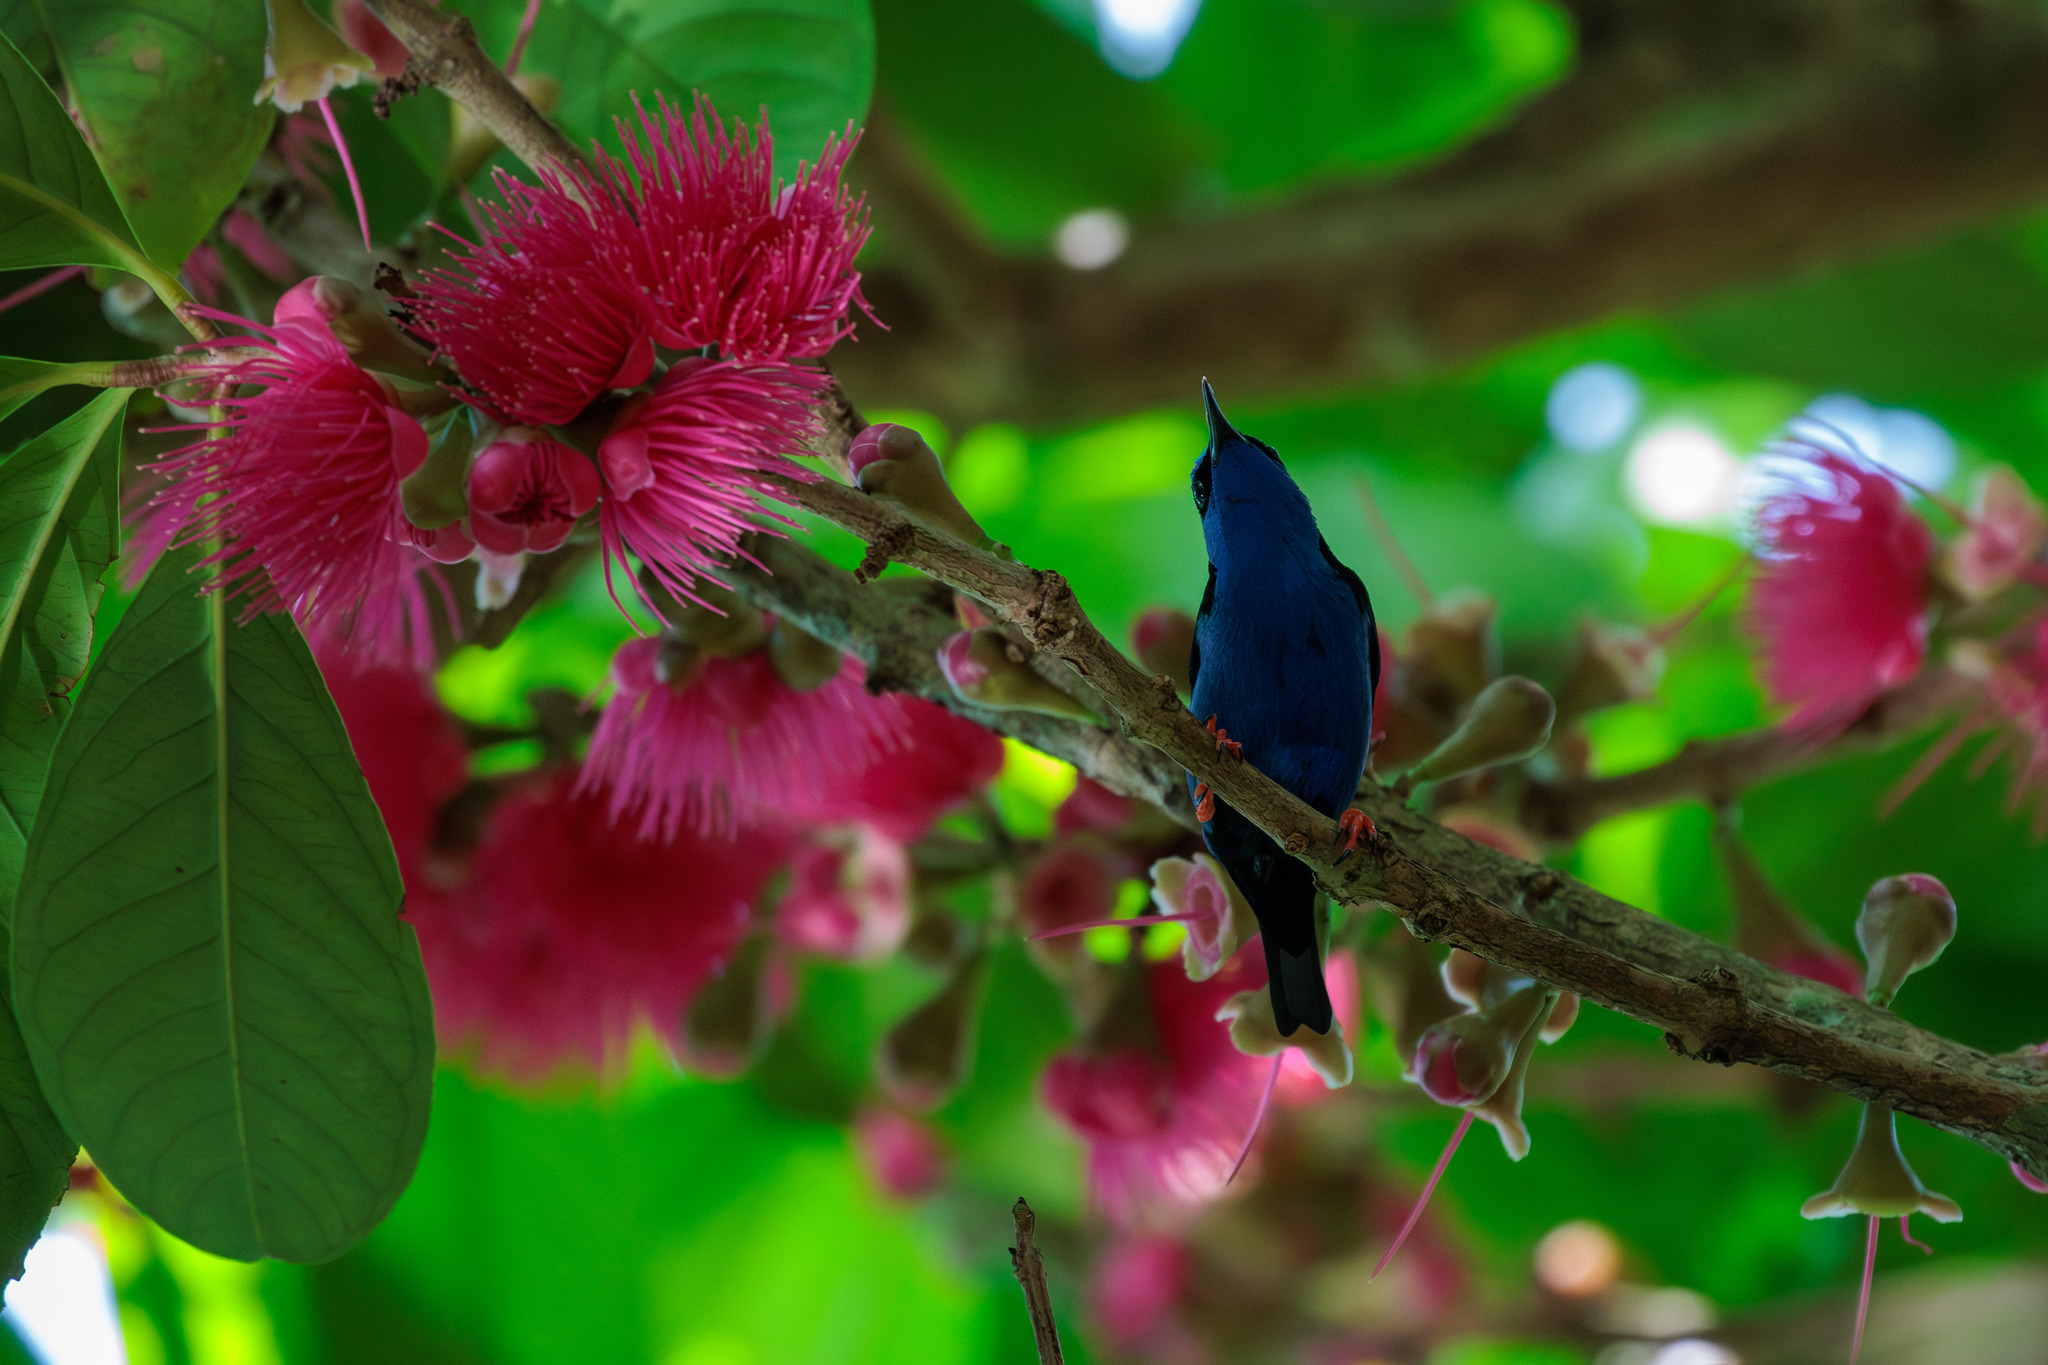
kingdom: Animalia
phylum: Chordata
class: Aves
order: Passeriformes
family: Thraupidae
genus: Cyanerpes
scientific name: Cyanerpes cyaneus
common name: Red-legged honeycreeper
